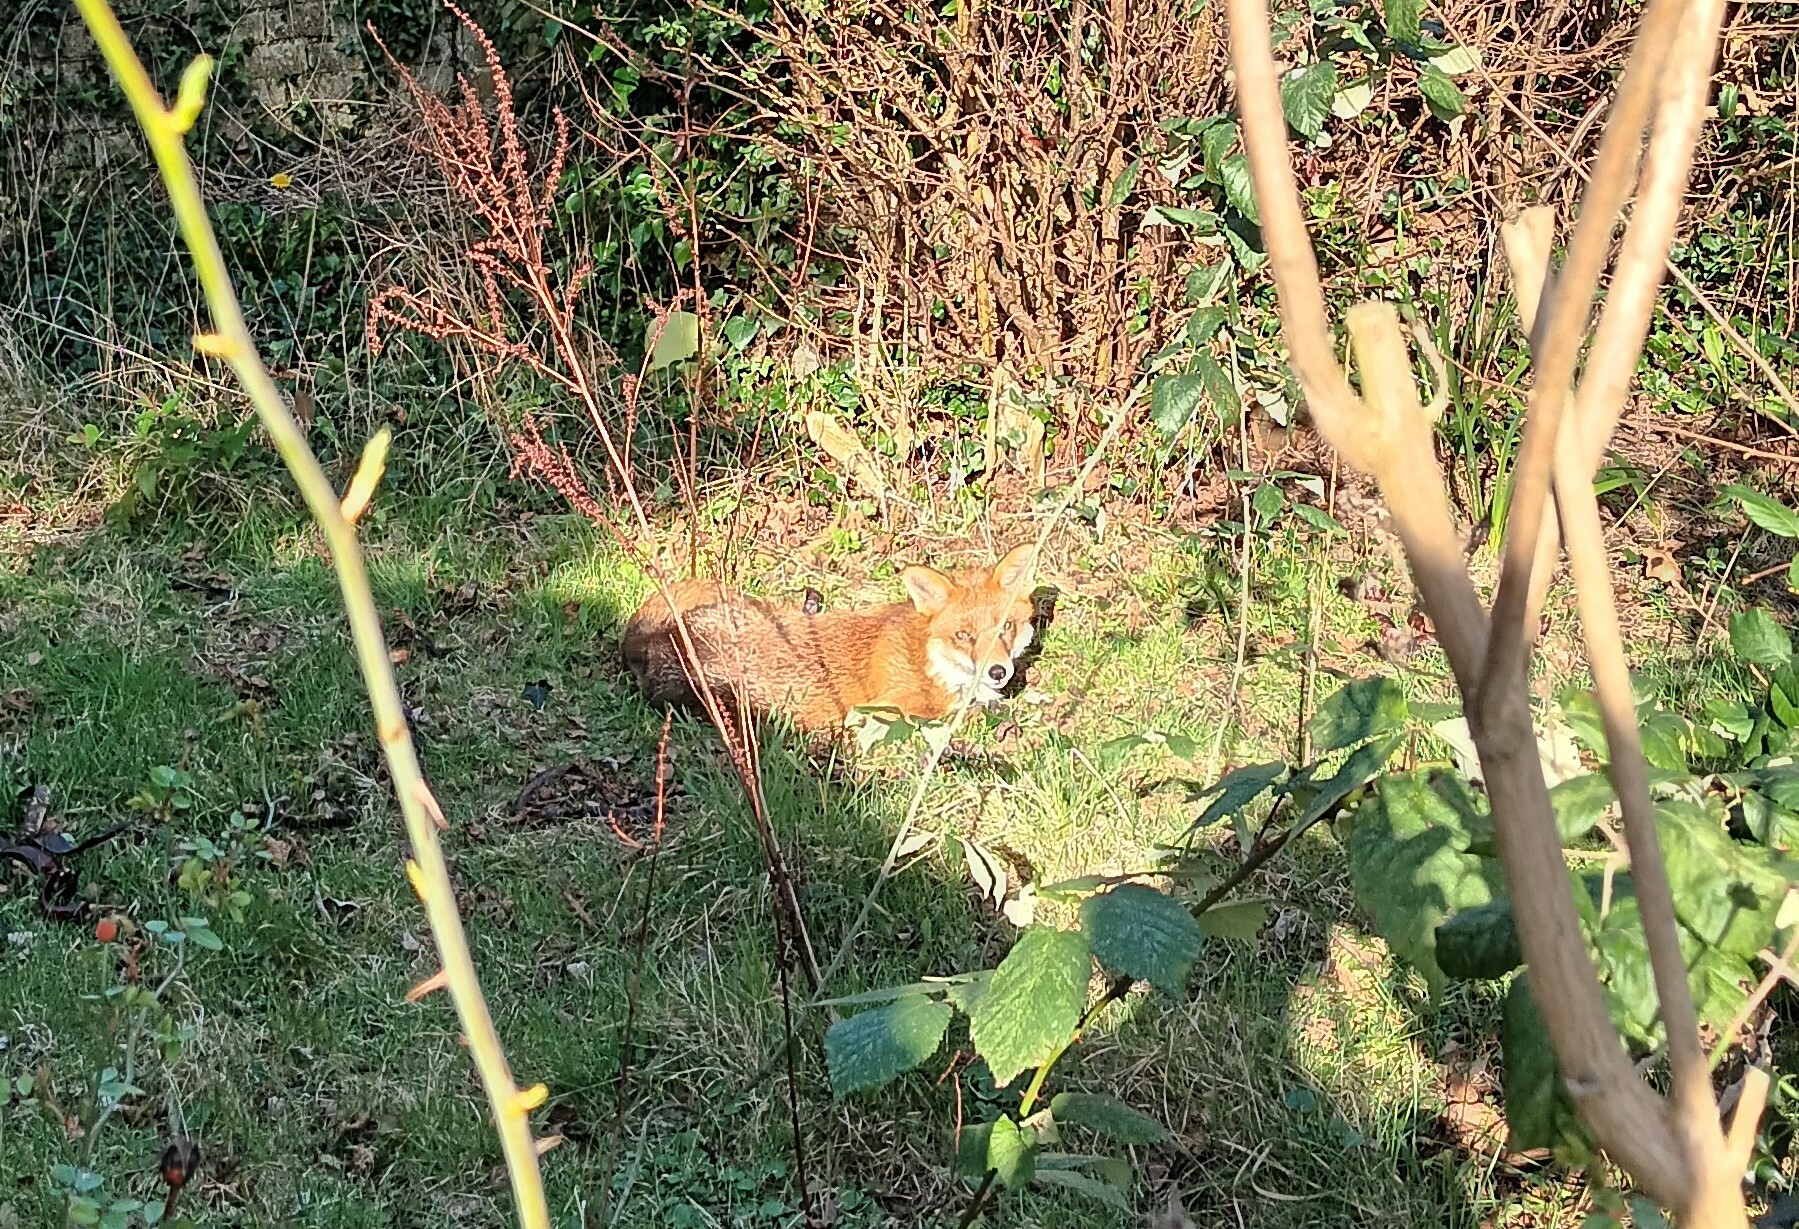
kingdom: Animalia
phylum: Chordata
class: Mammalia
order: Carnivora
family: Canidae
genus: Vulpes
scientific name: Vulpes vulpes
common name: Red fox
